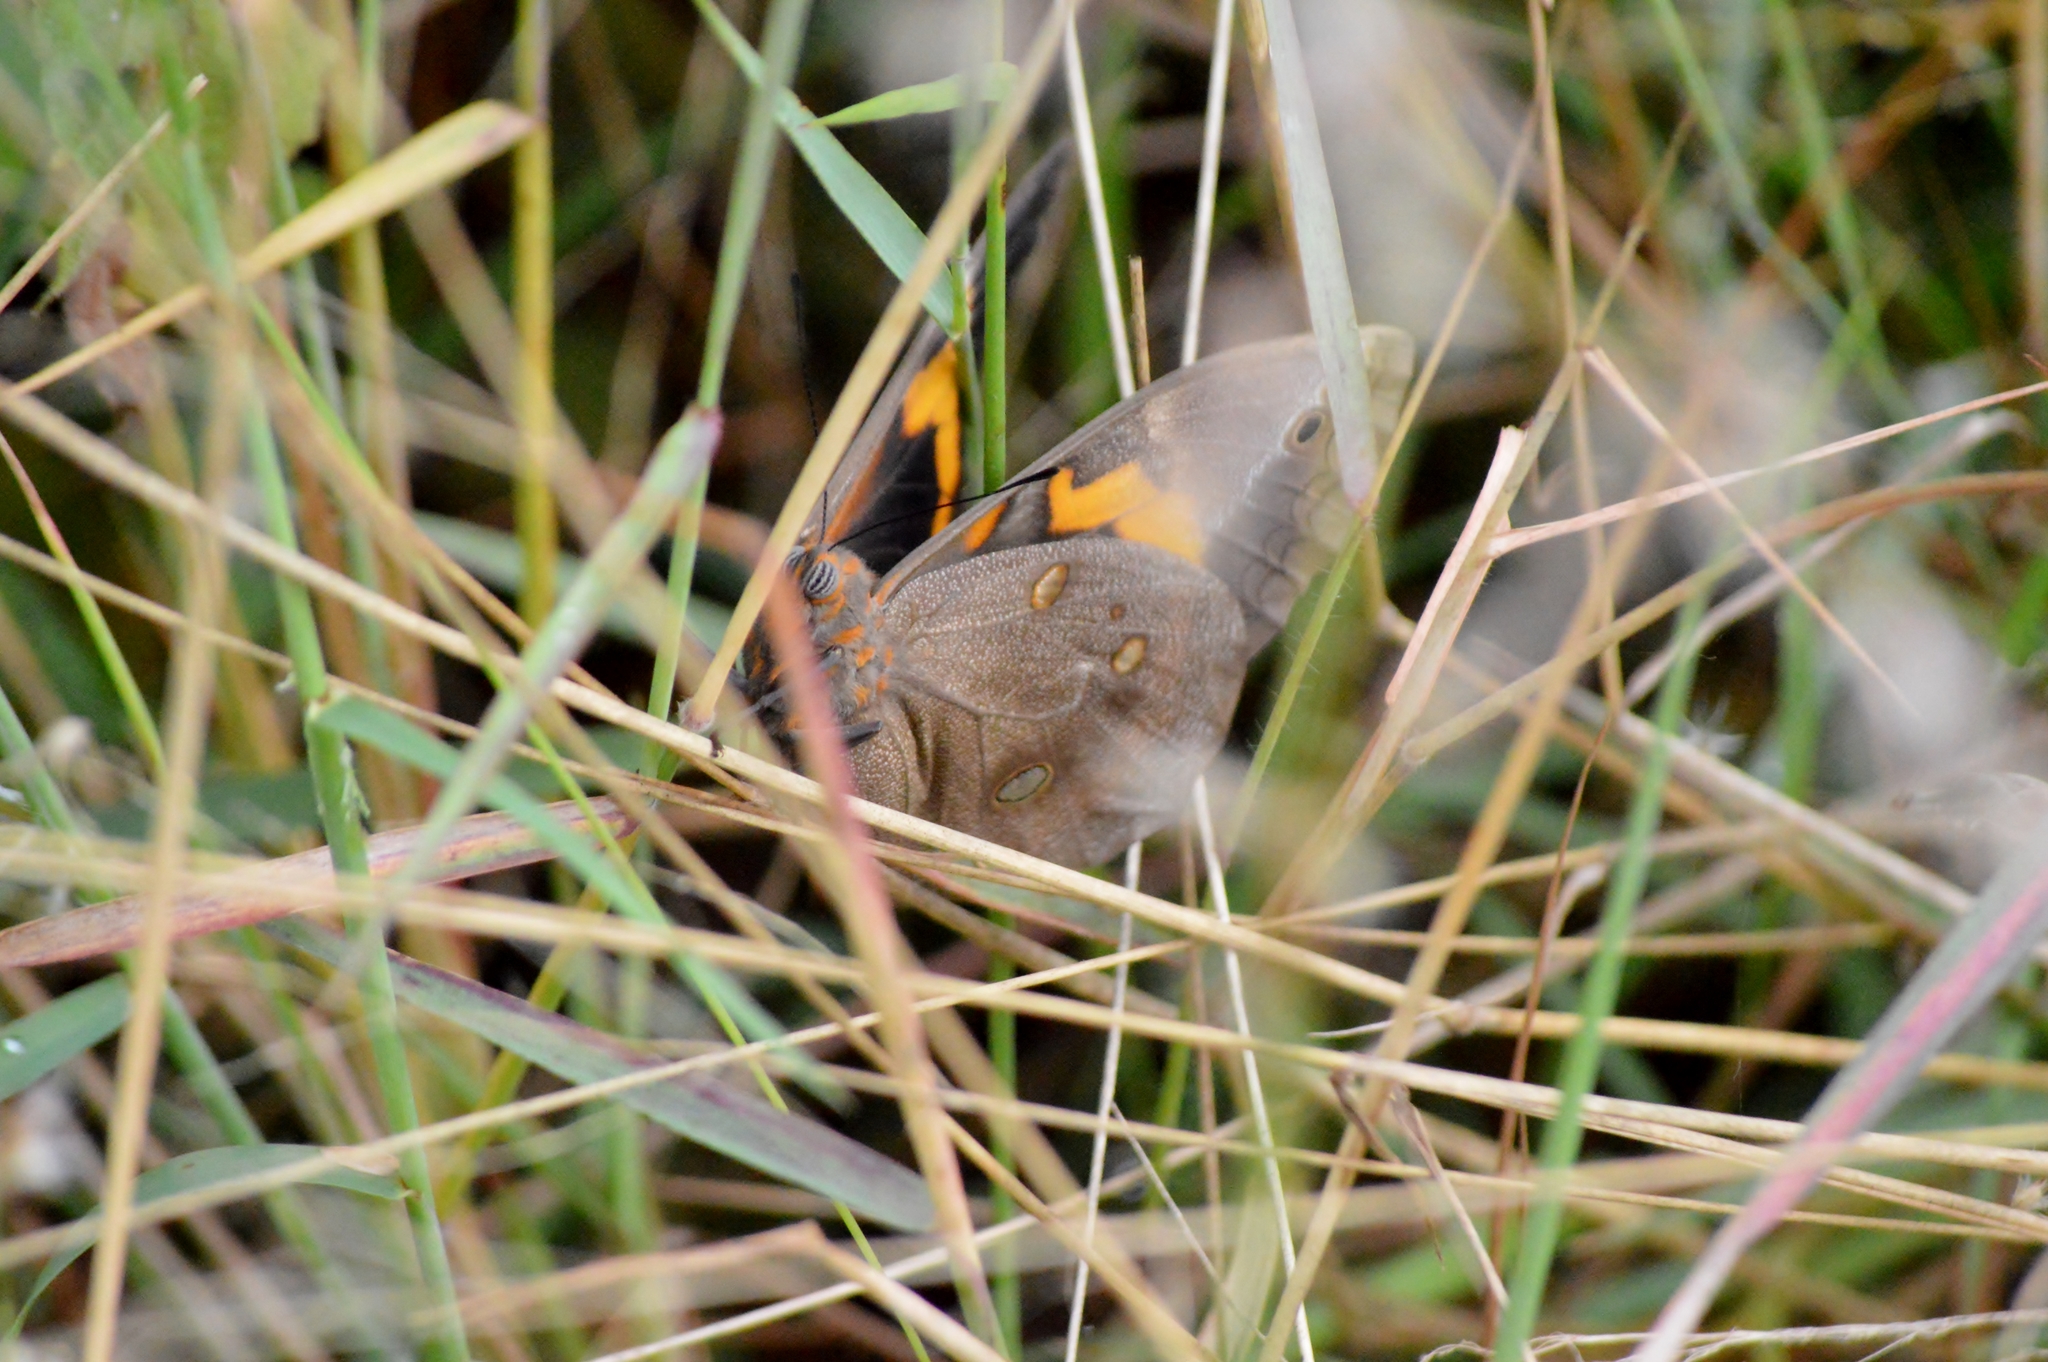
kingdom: Animalia
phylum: Arthropoda
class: Insecta
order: Lepidoptera
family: Nymphalidae
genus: Brassolis
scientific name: Brassolis sophorae
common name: Coconut caterpillar
